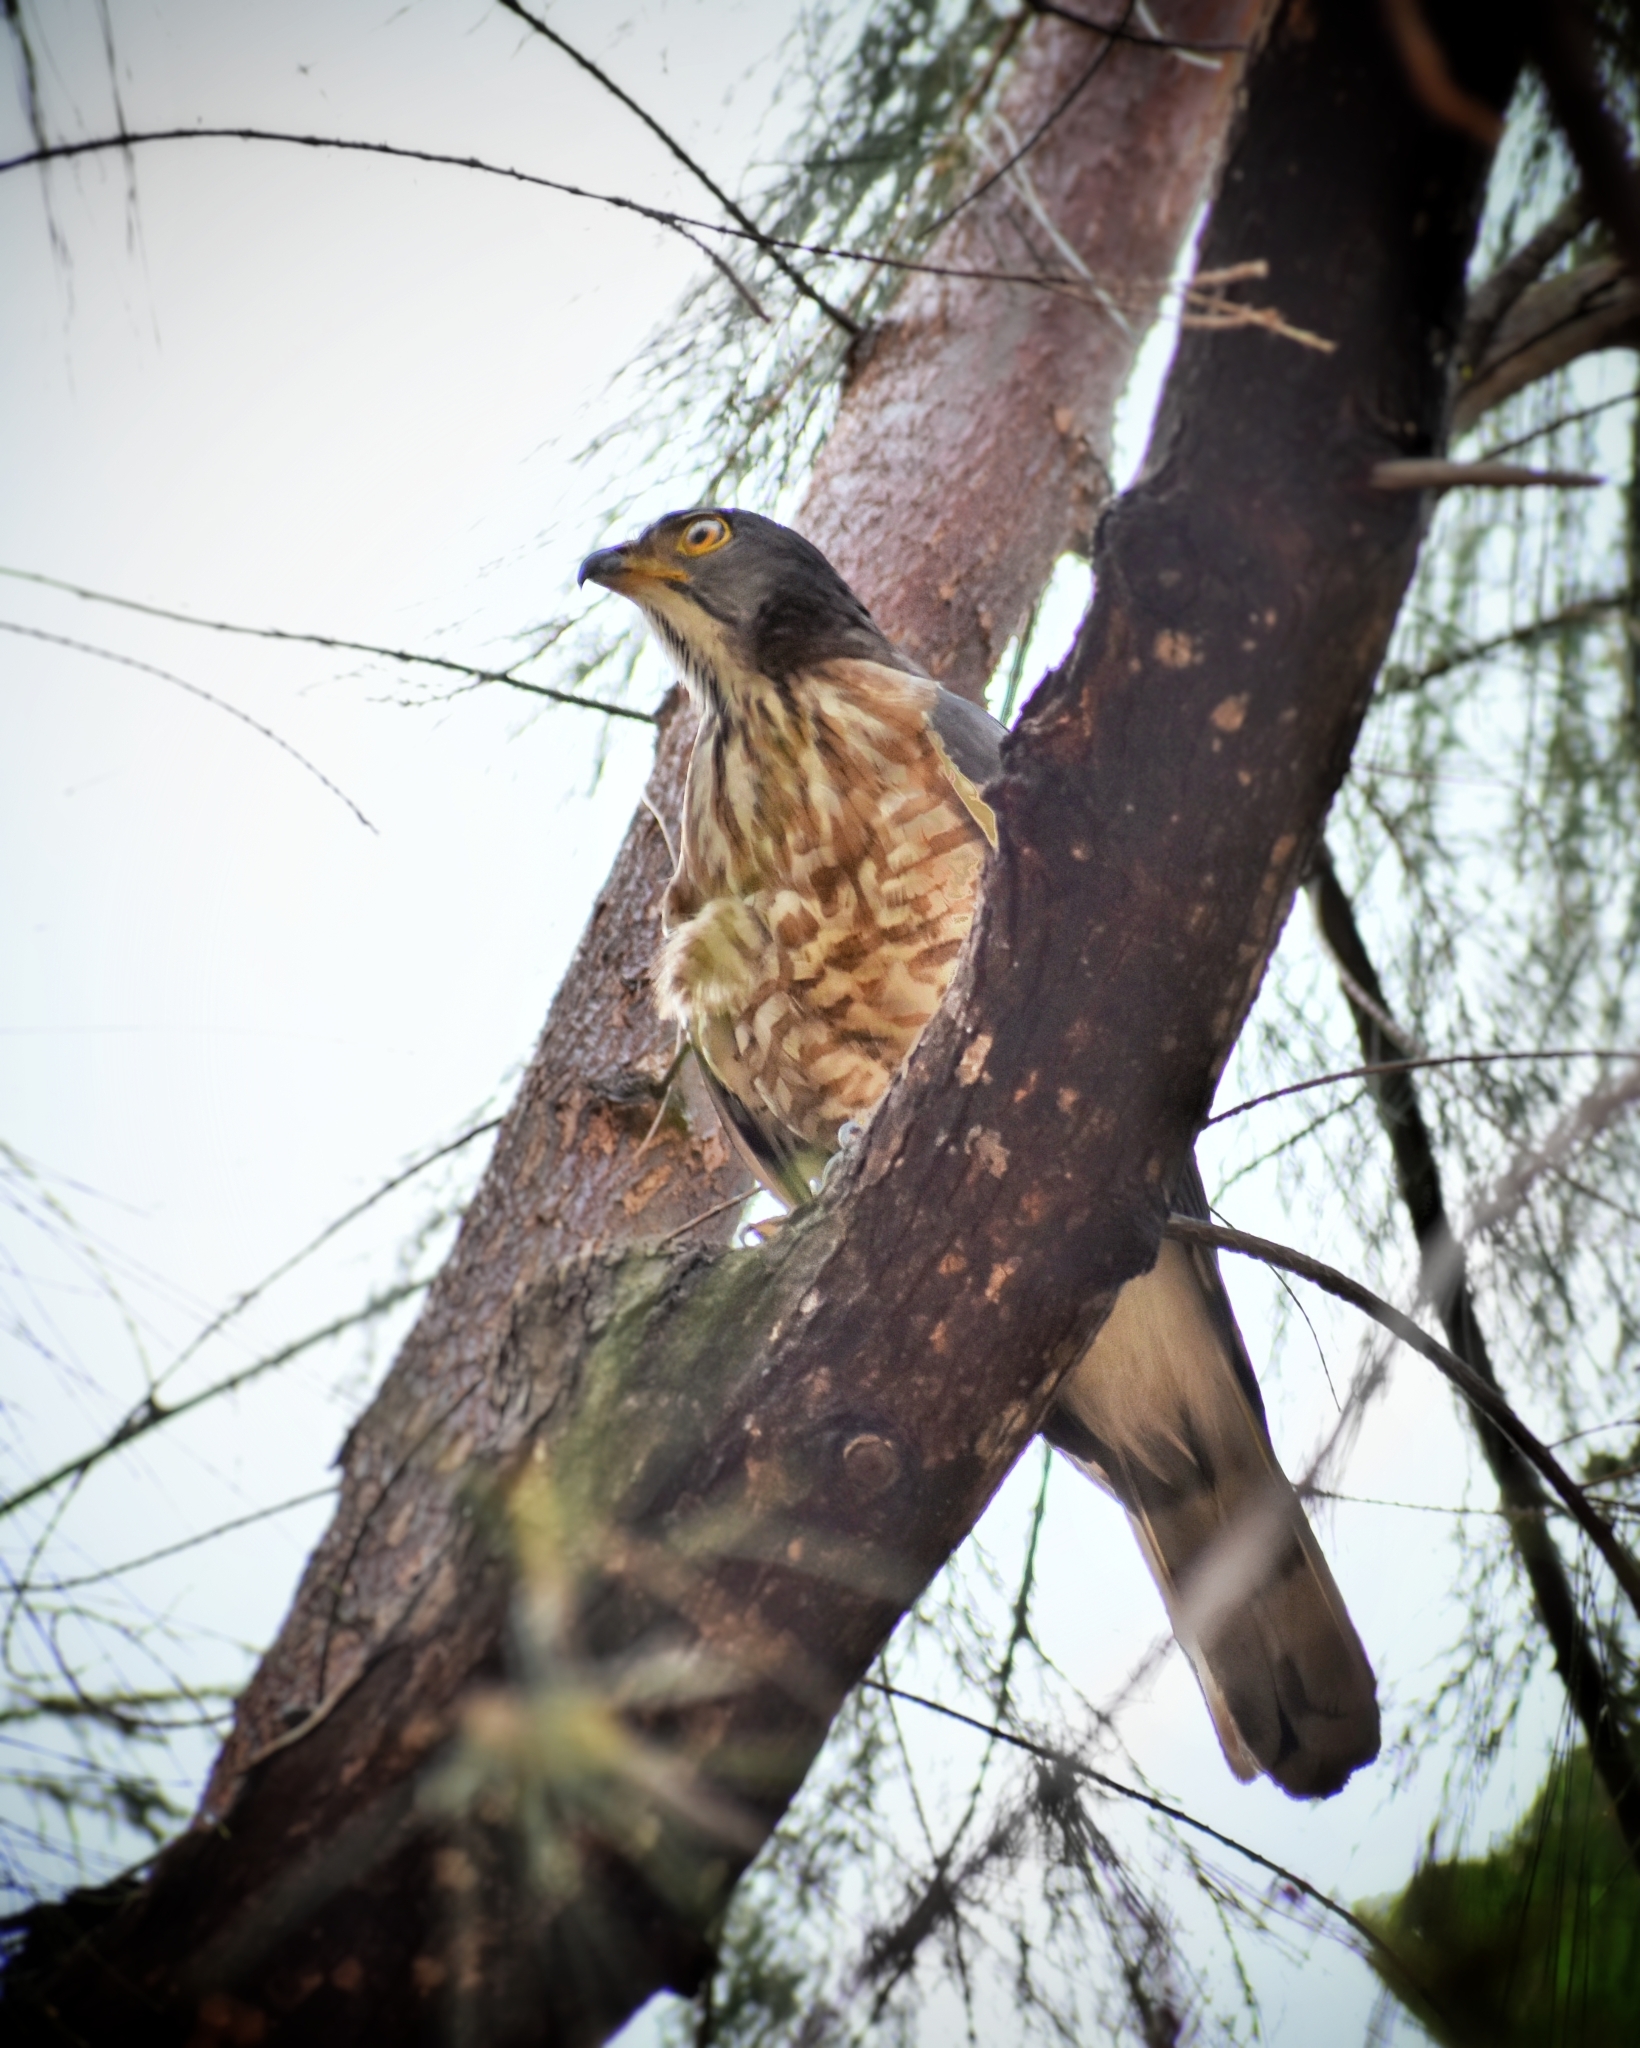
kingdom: Animalia
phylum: Chordata
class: Aves
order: Accipitriformes
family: Accipitridae
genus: Accipiter
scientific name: Accipiter trivirgatus
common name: Crested goshawk
